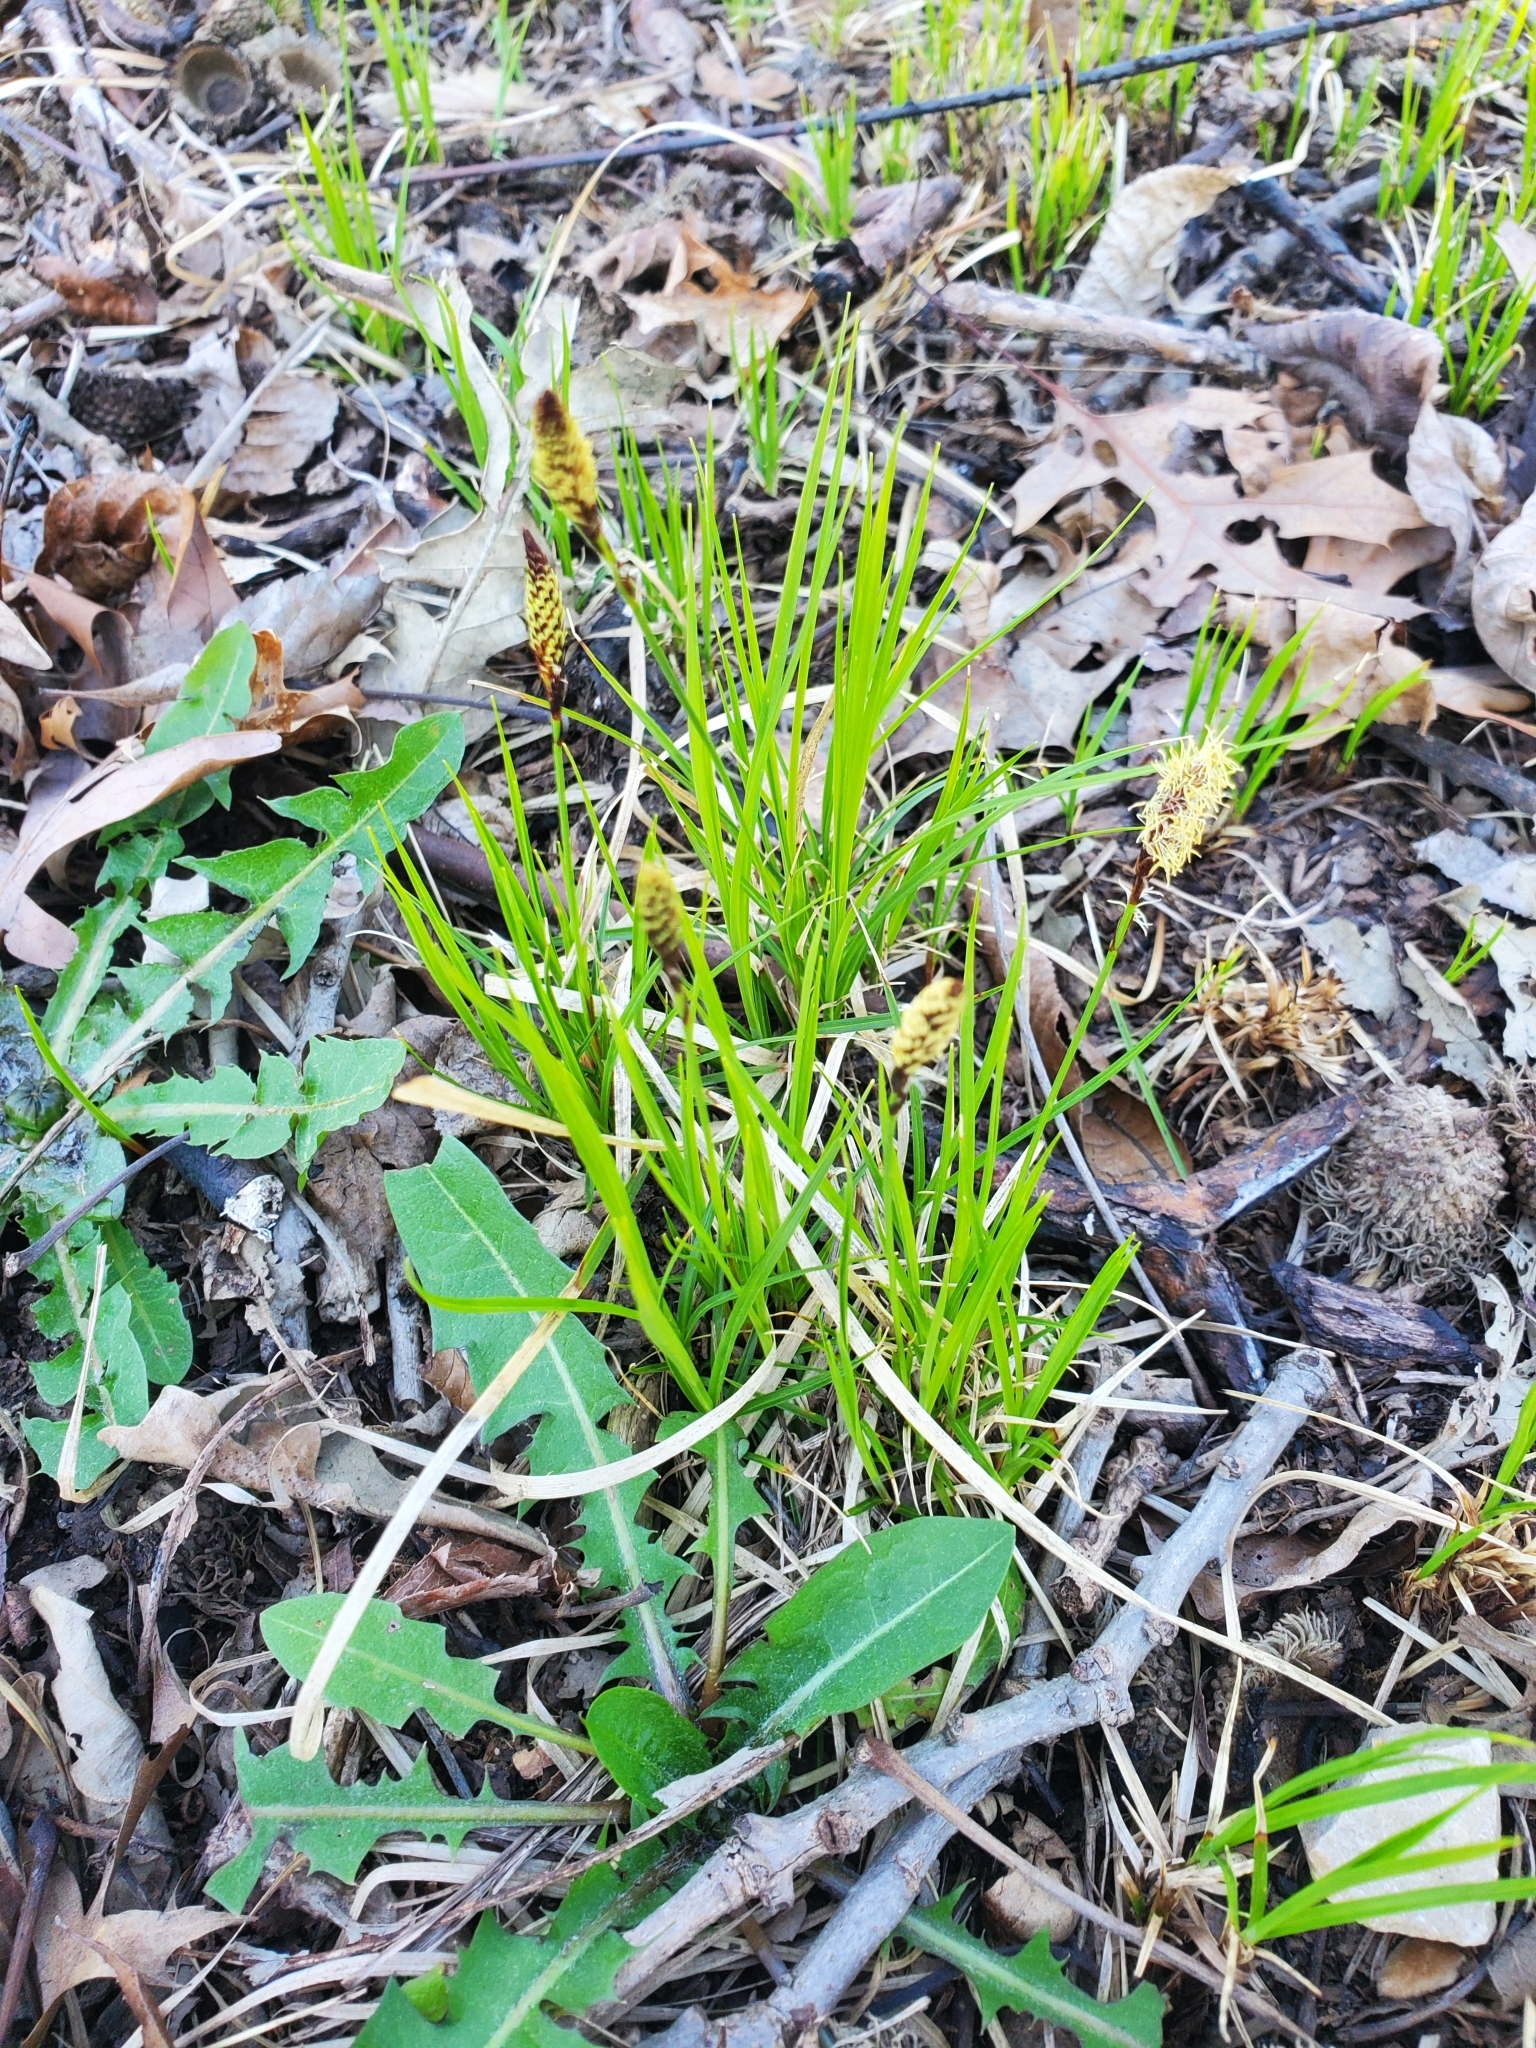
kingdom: Plantae
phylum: Tracheophyta
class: Liliopsida
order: Poales
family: Cyperaceae
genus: Carex
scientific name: Carex pensylvanica
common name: Common oak sedge
